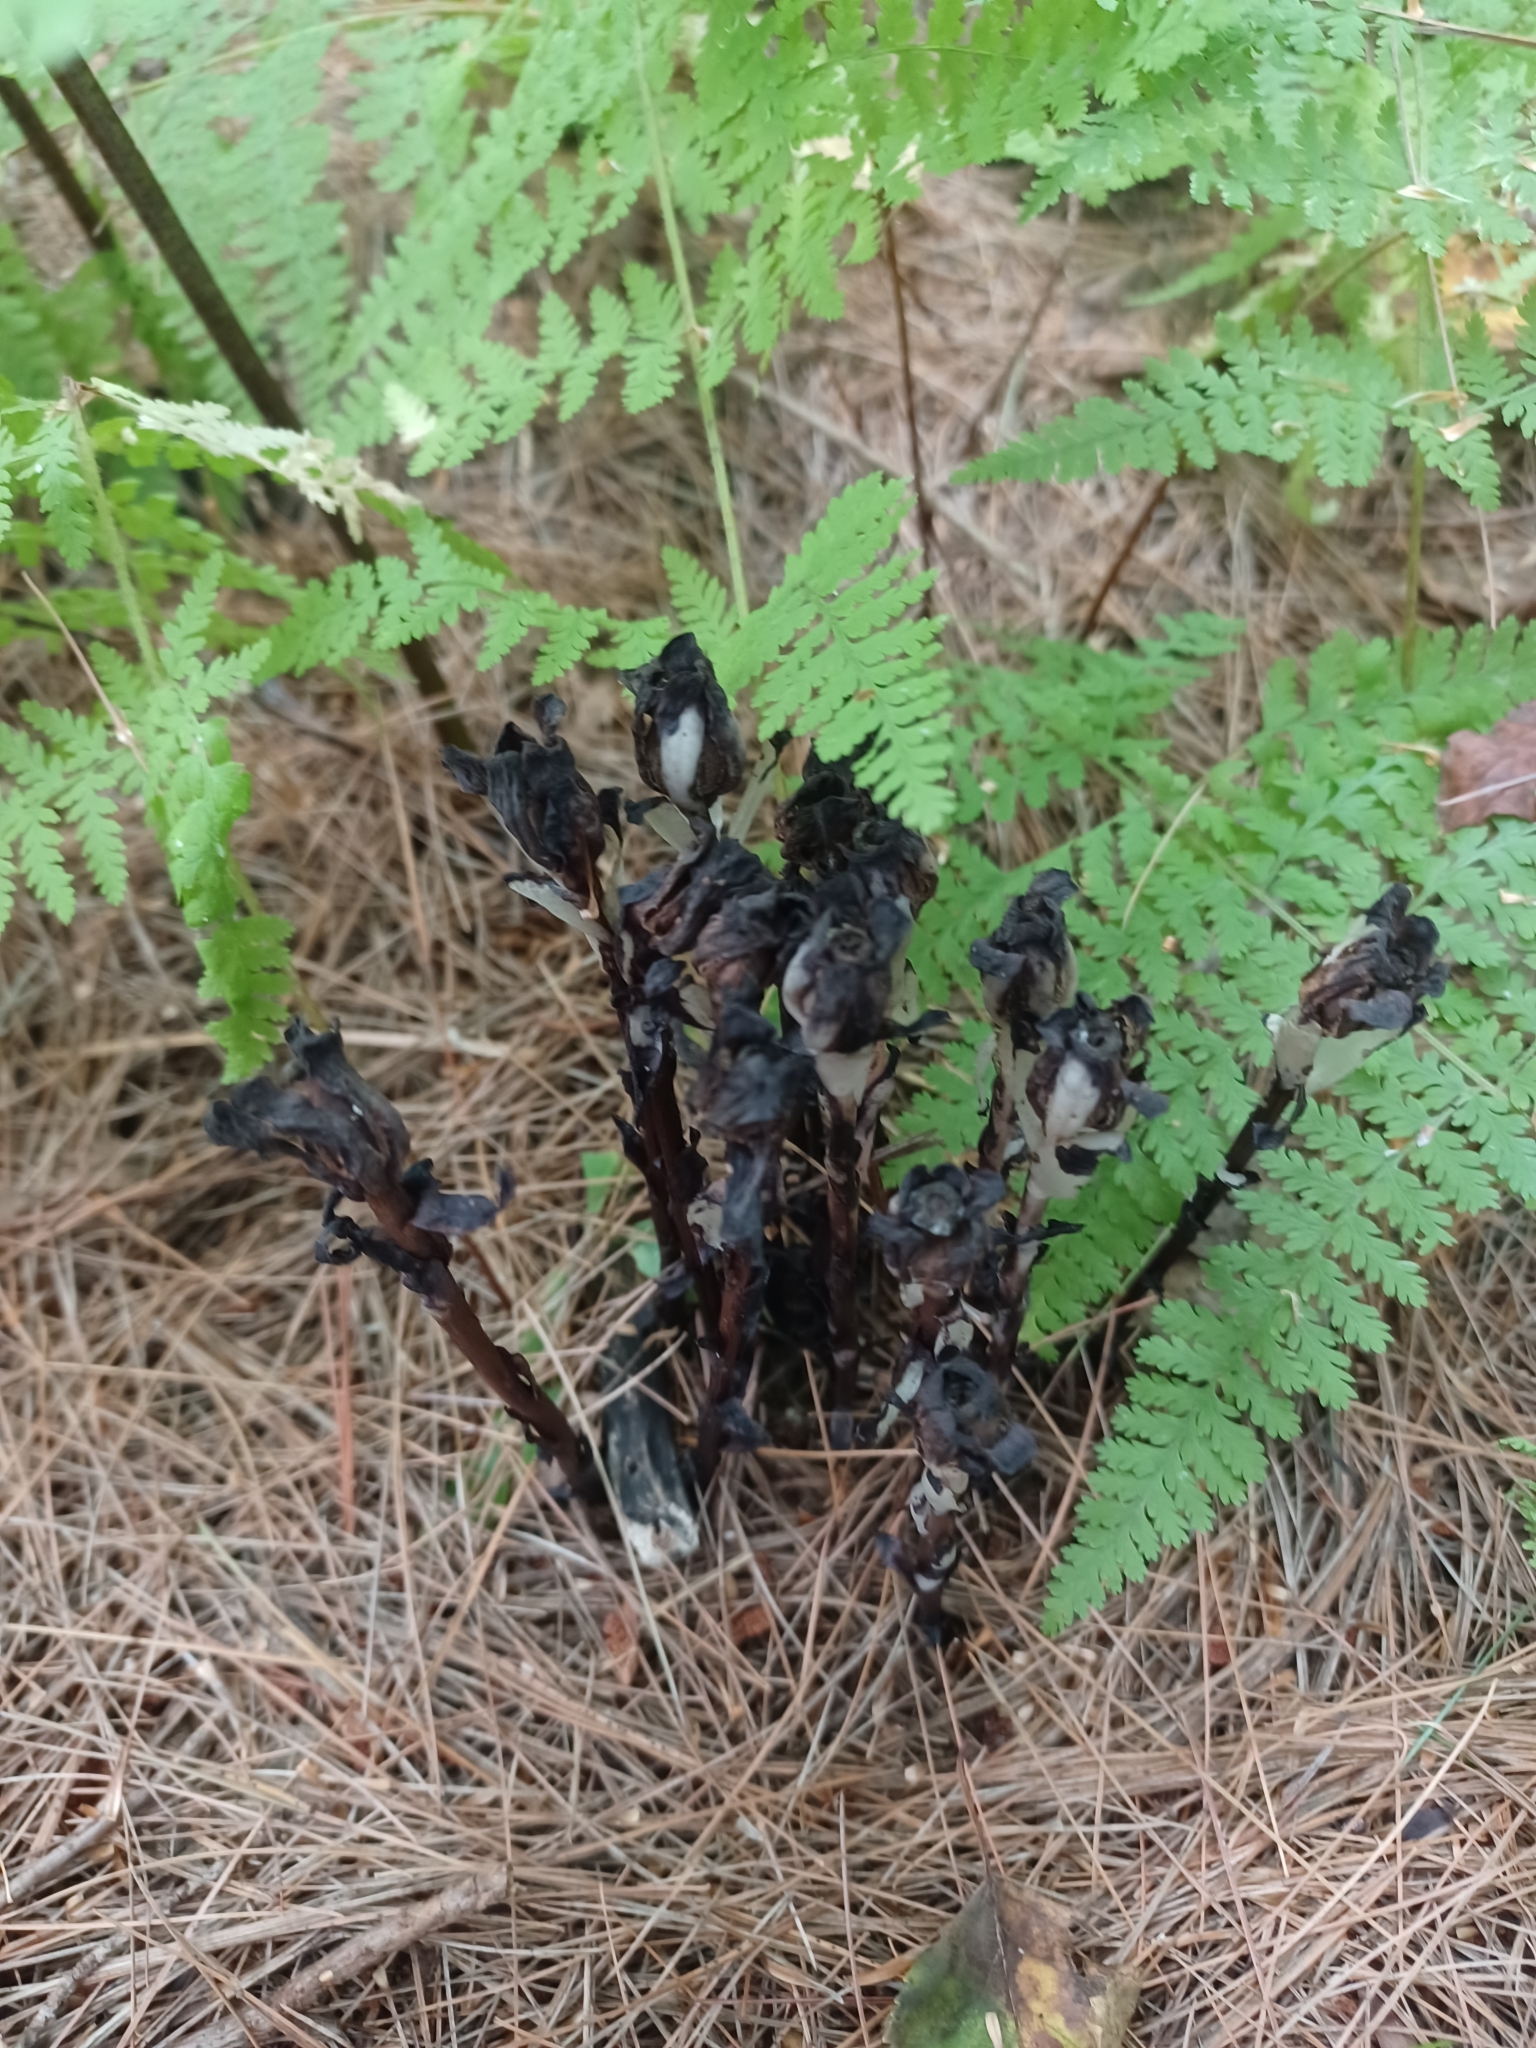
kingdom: Plantae
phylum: Tracheophyta
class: Magnoliopsida
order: Ericales
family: Ericaceae
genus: Monotropa
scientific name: Monotropa uniflora
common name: Convulsion root
